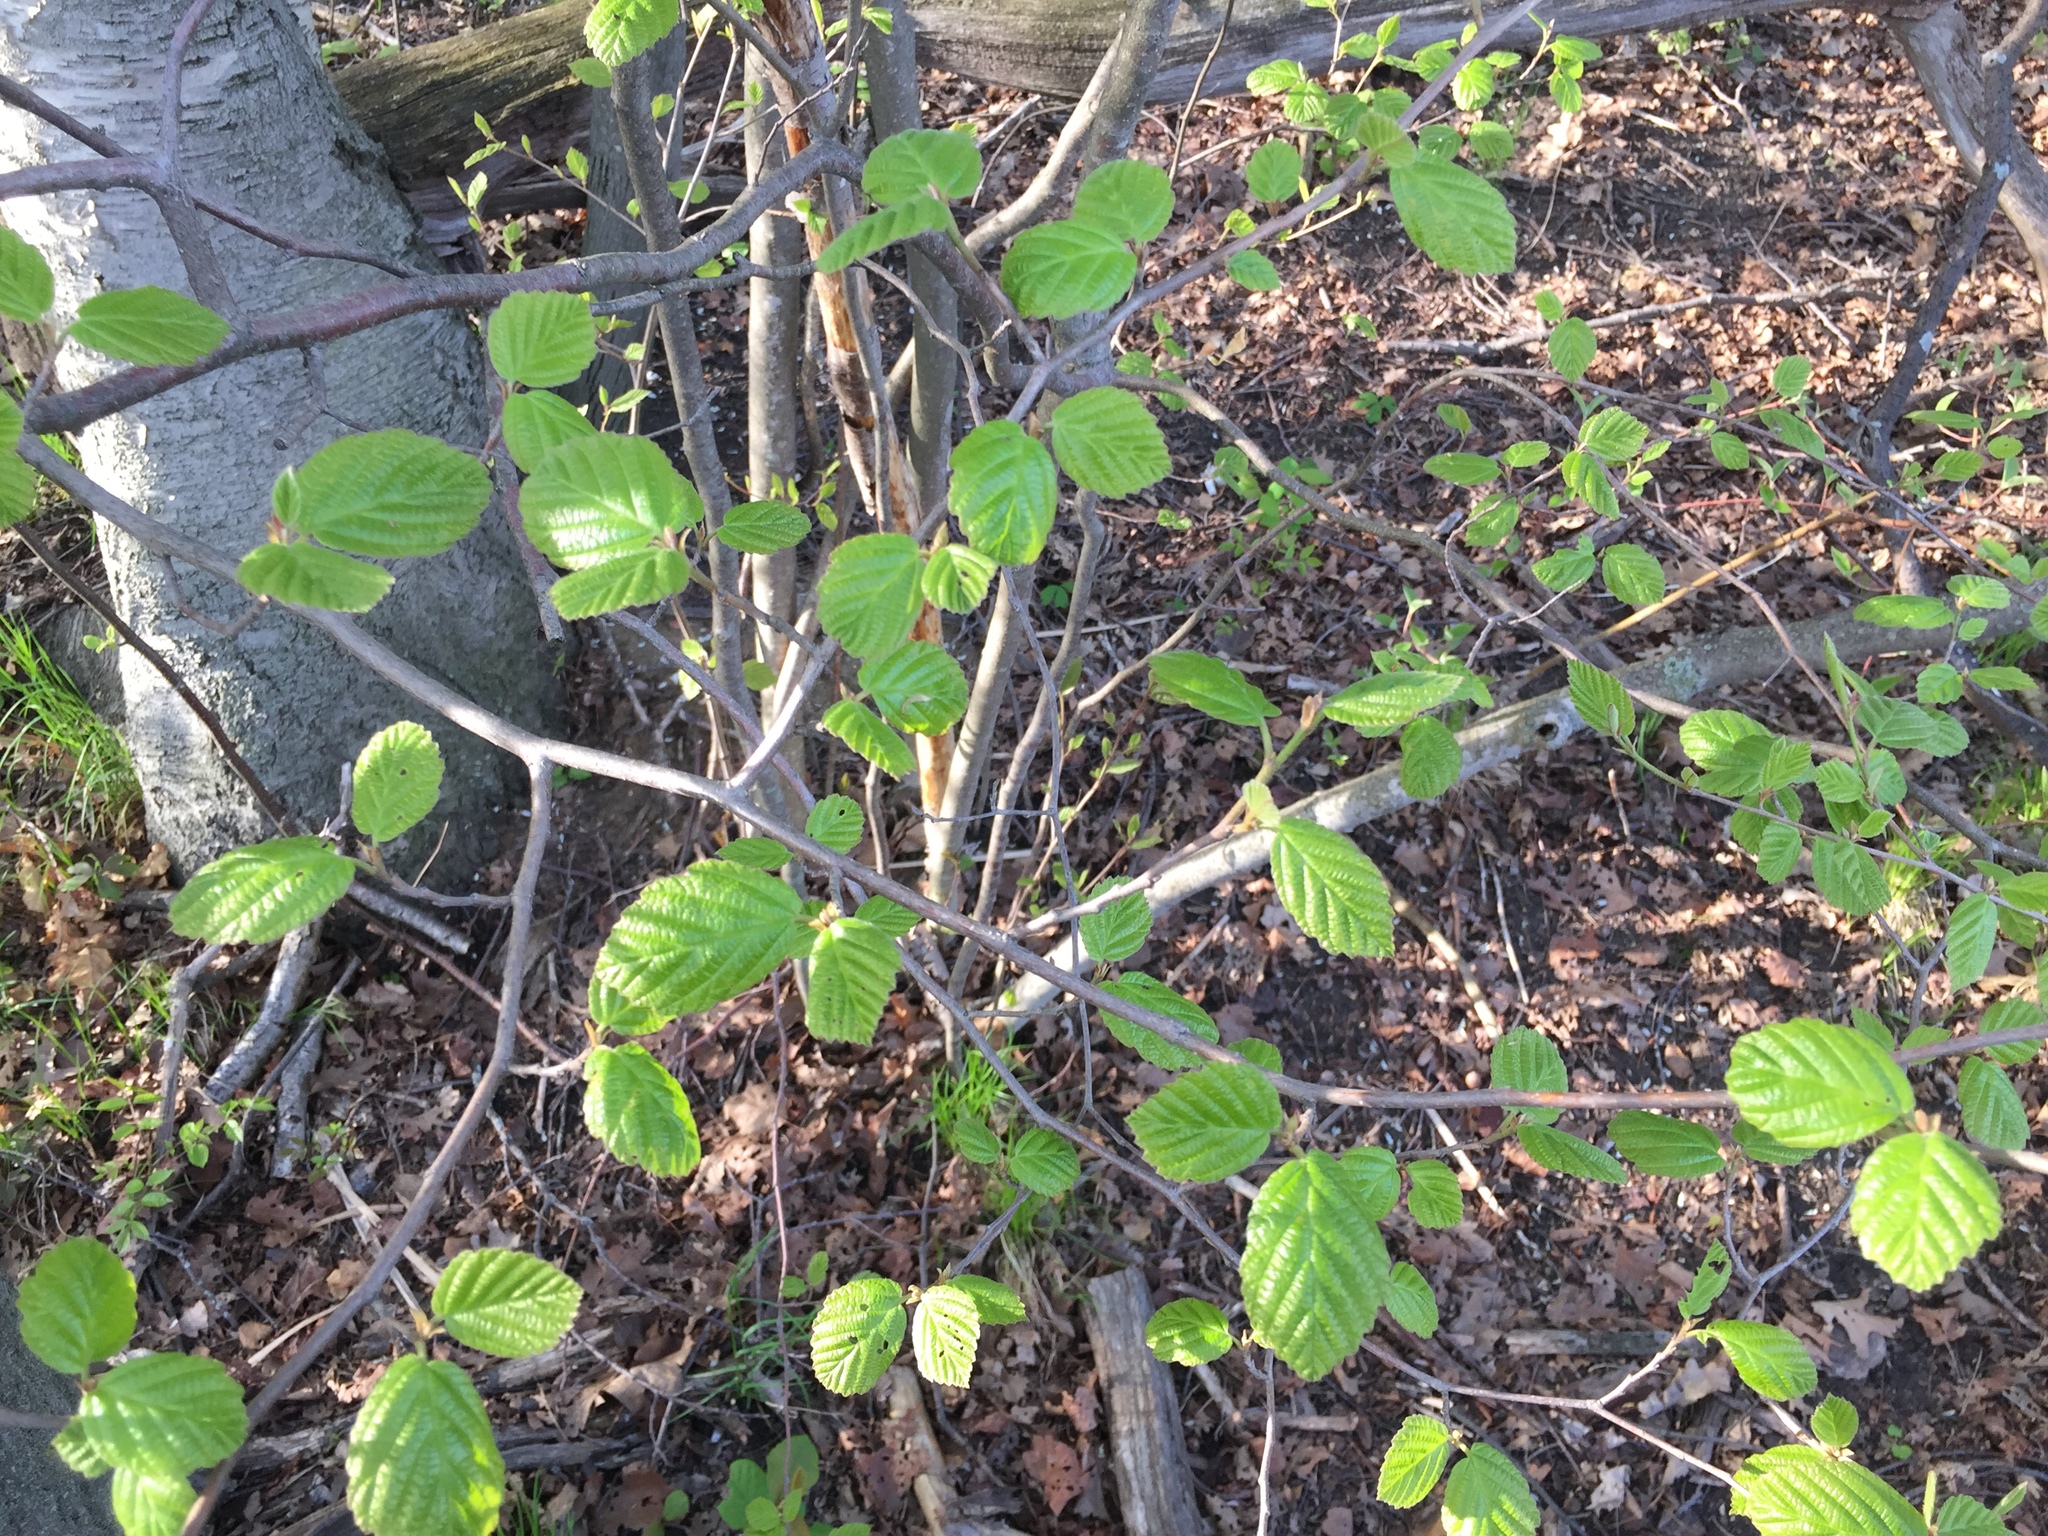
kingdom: Plantae
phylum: Tracheophyta
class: Magnoliopsida
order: Fagales
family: Betulaceae
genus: Alnus
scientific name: Alnus glutinosa
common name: Black alder
